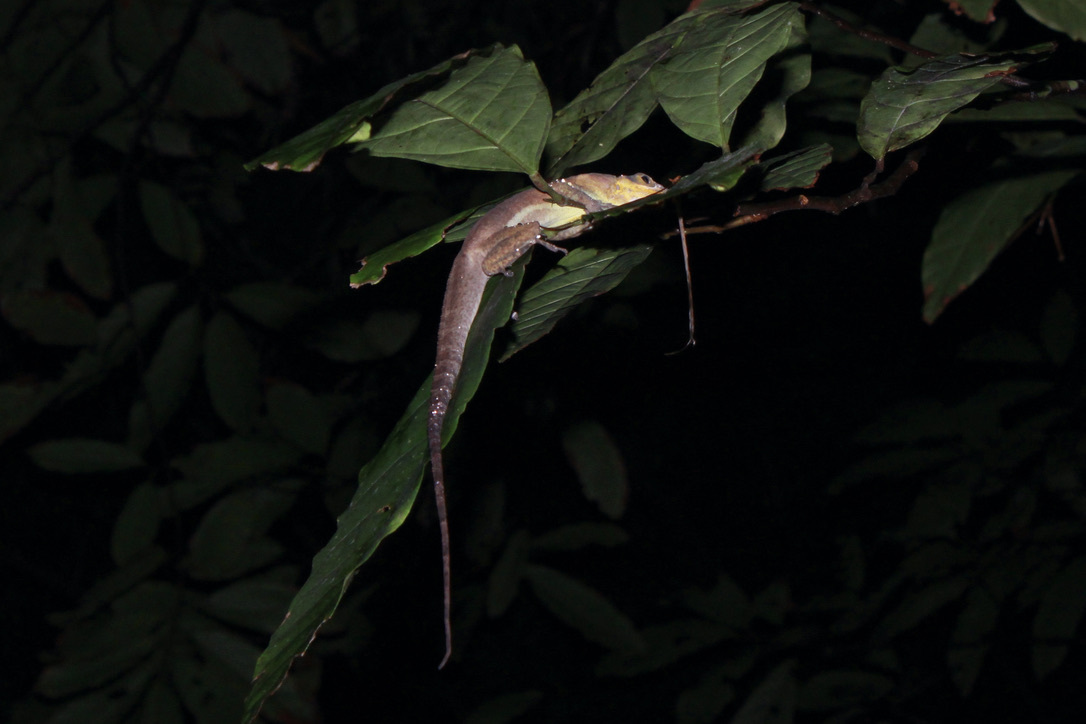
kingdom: Animalia
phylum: Chordata
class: Squamata
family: Dactyloidae
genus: Anolis
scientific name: Anolis richardii
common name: Grenada tree anole
